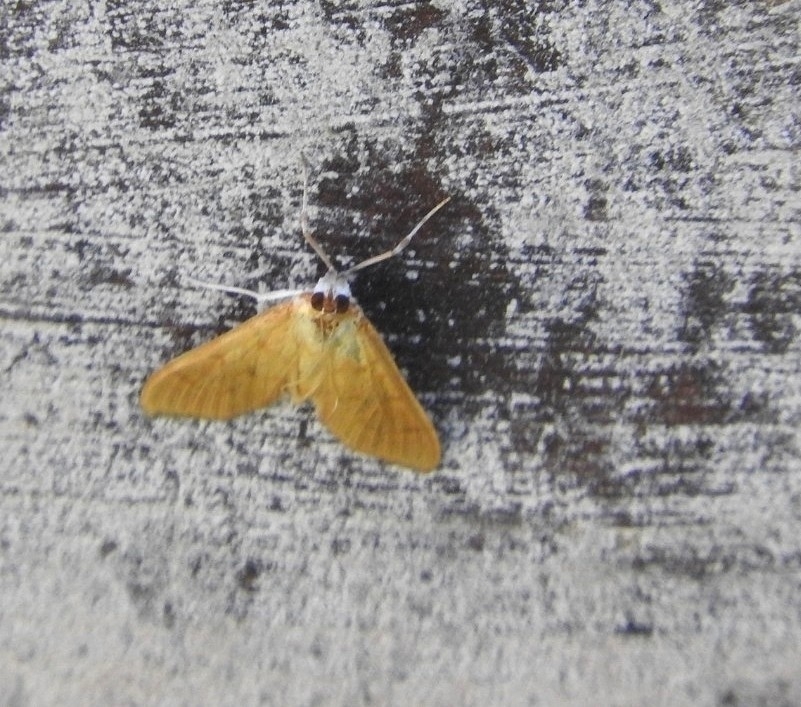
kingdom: Animalia
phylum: Arthropoda
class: Insecta
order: Lepidoptera
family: Crambidae
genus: Condylorrhiza
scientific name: Condylorrhiza vestigialis
